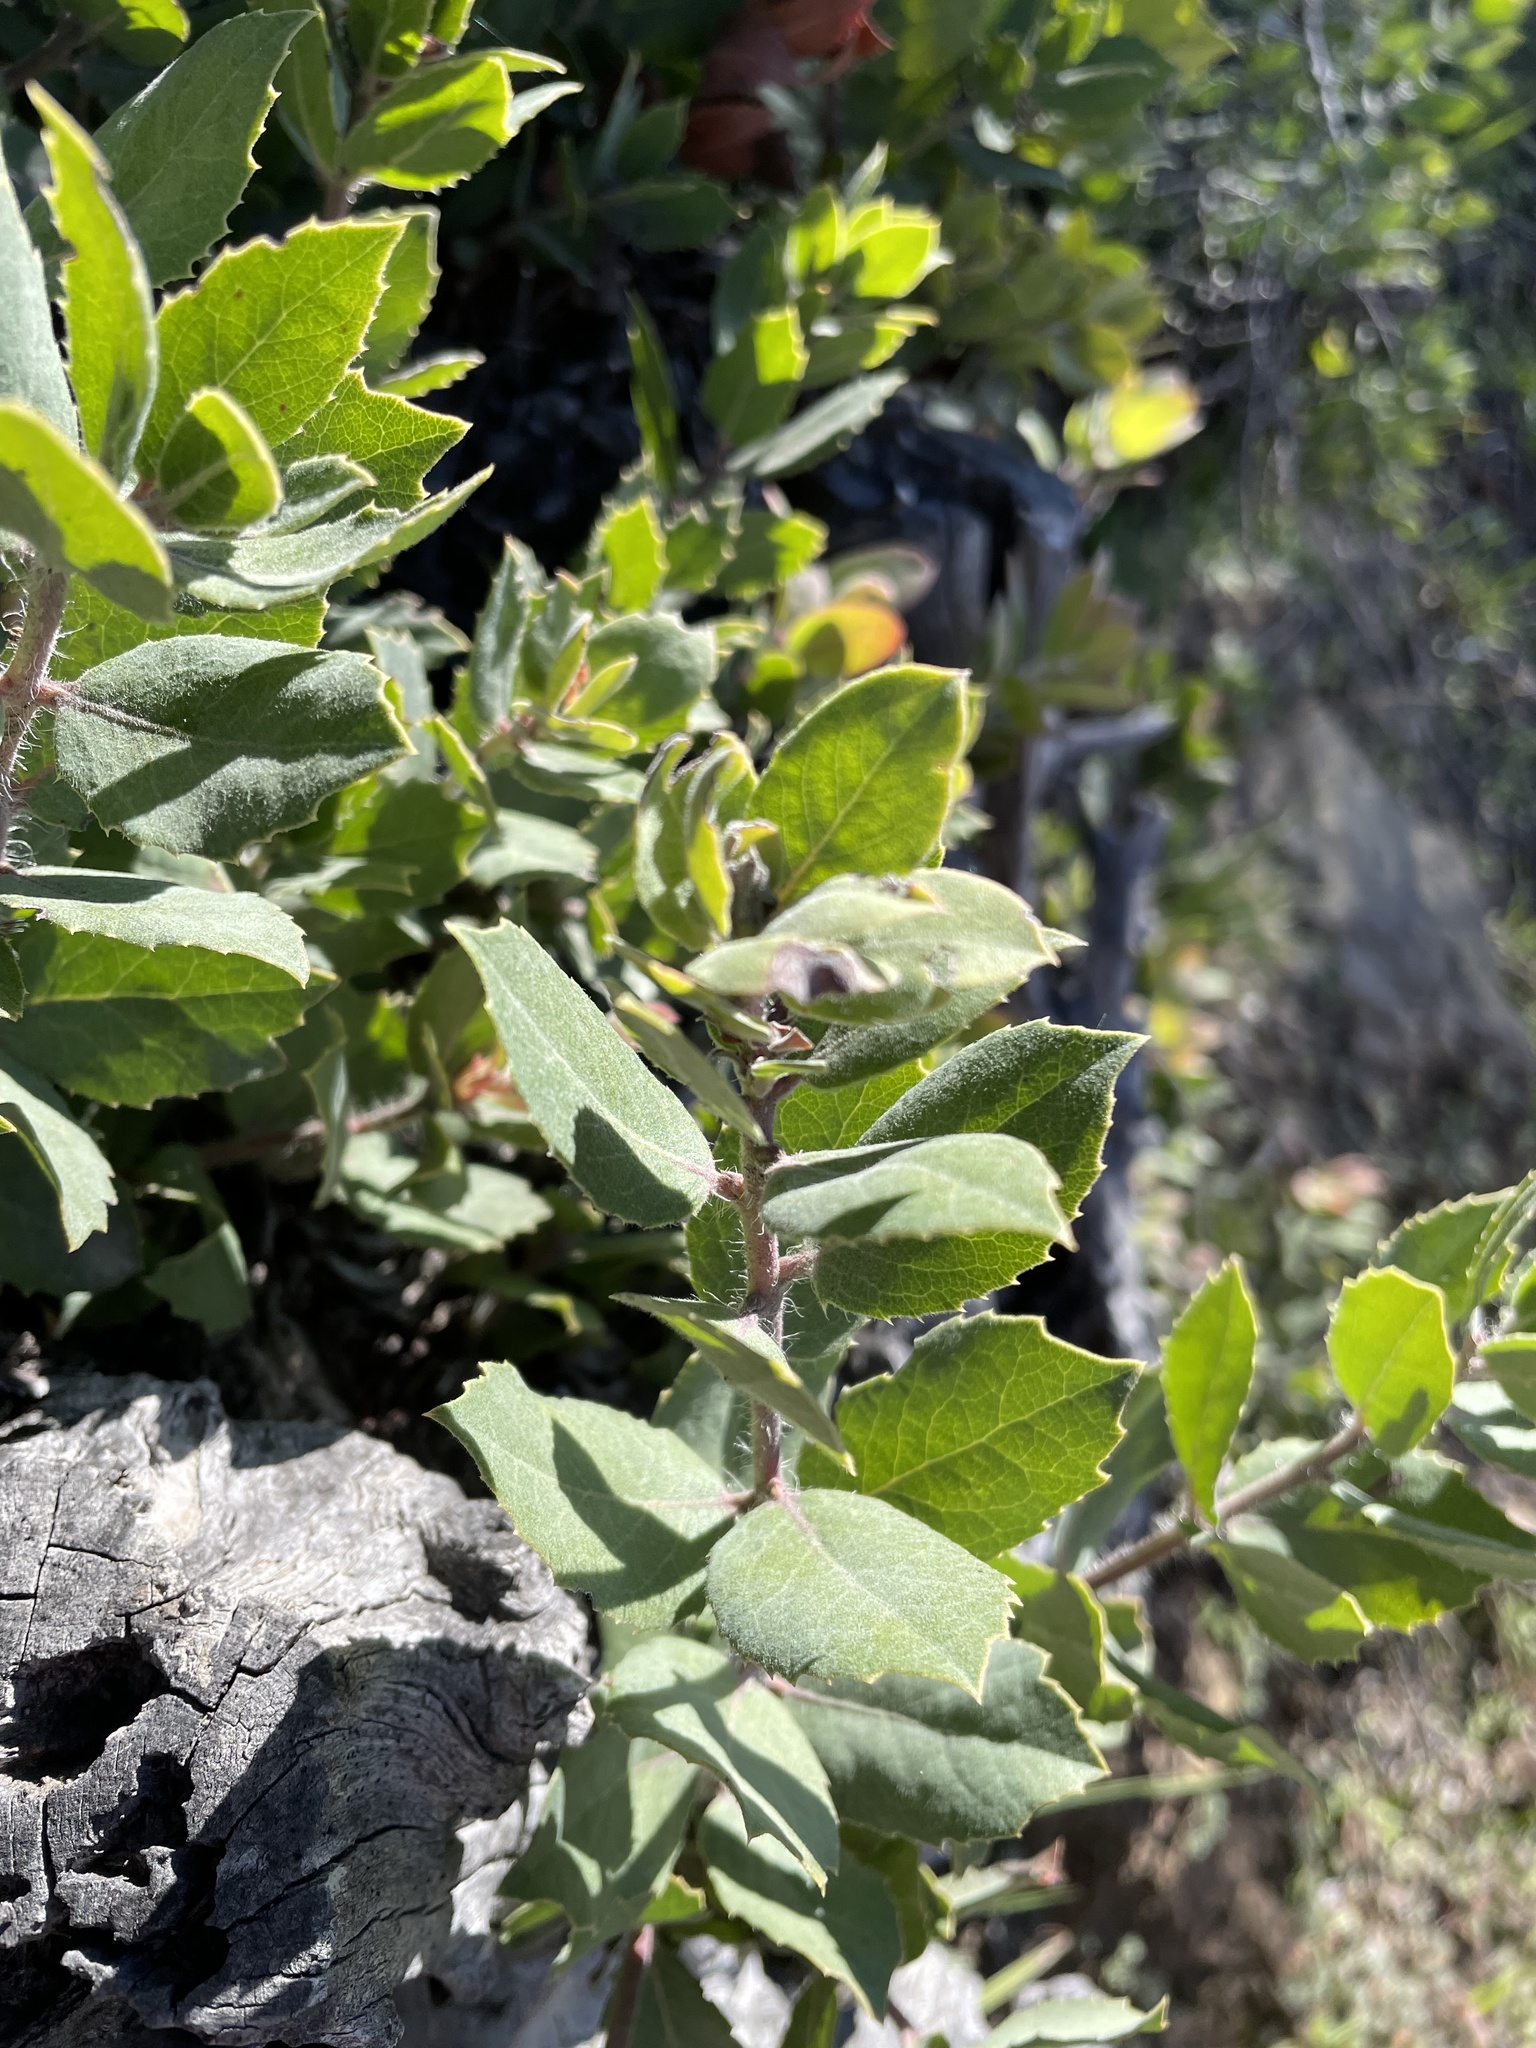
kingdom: Plantae
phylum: Tracheophyta
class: Magnoliopsida
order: Ericales
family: Ericaceae
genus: Arctostaphylos
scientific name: Arctostaphylos crustacea
